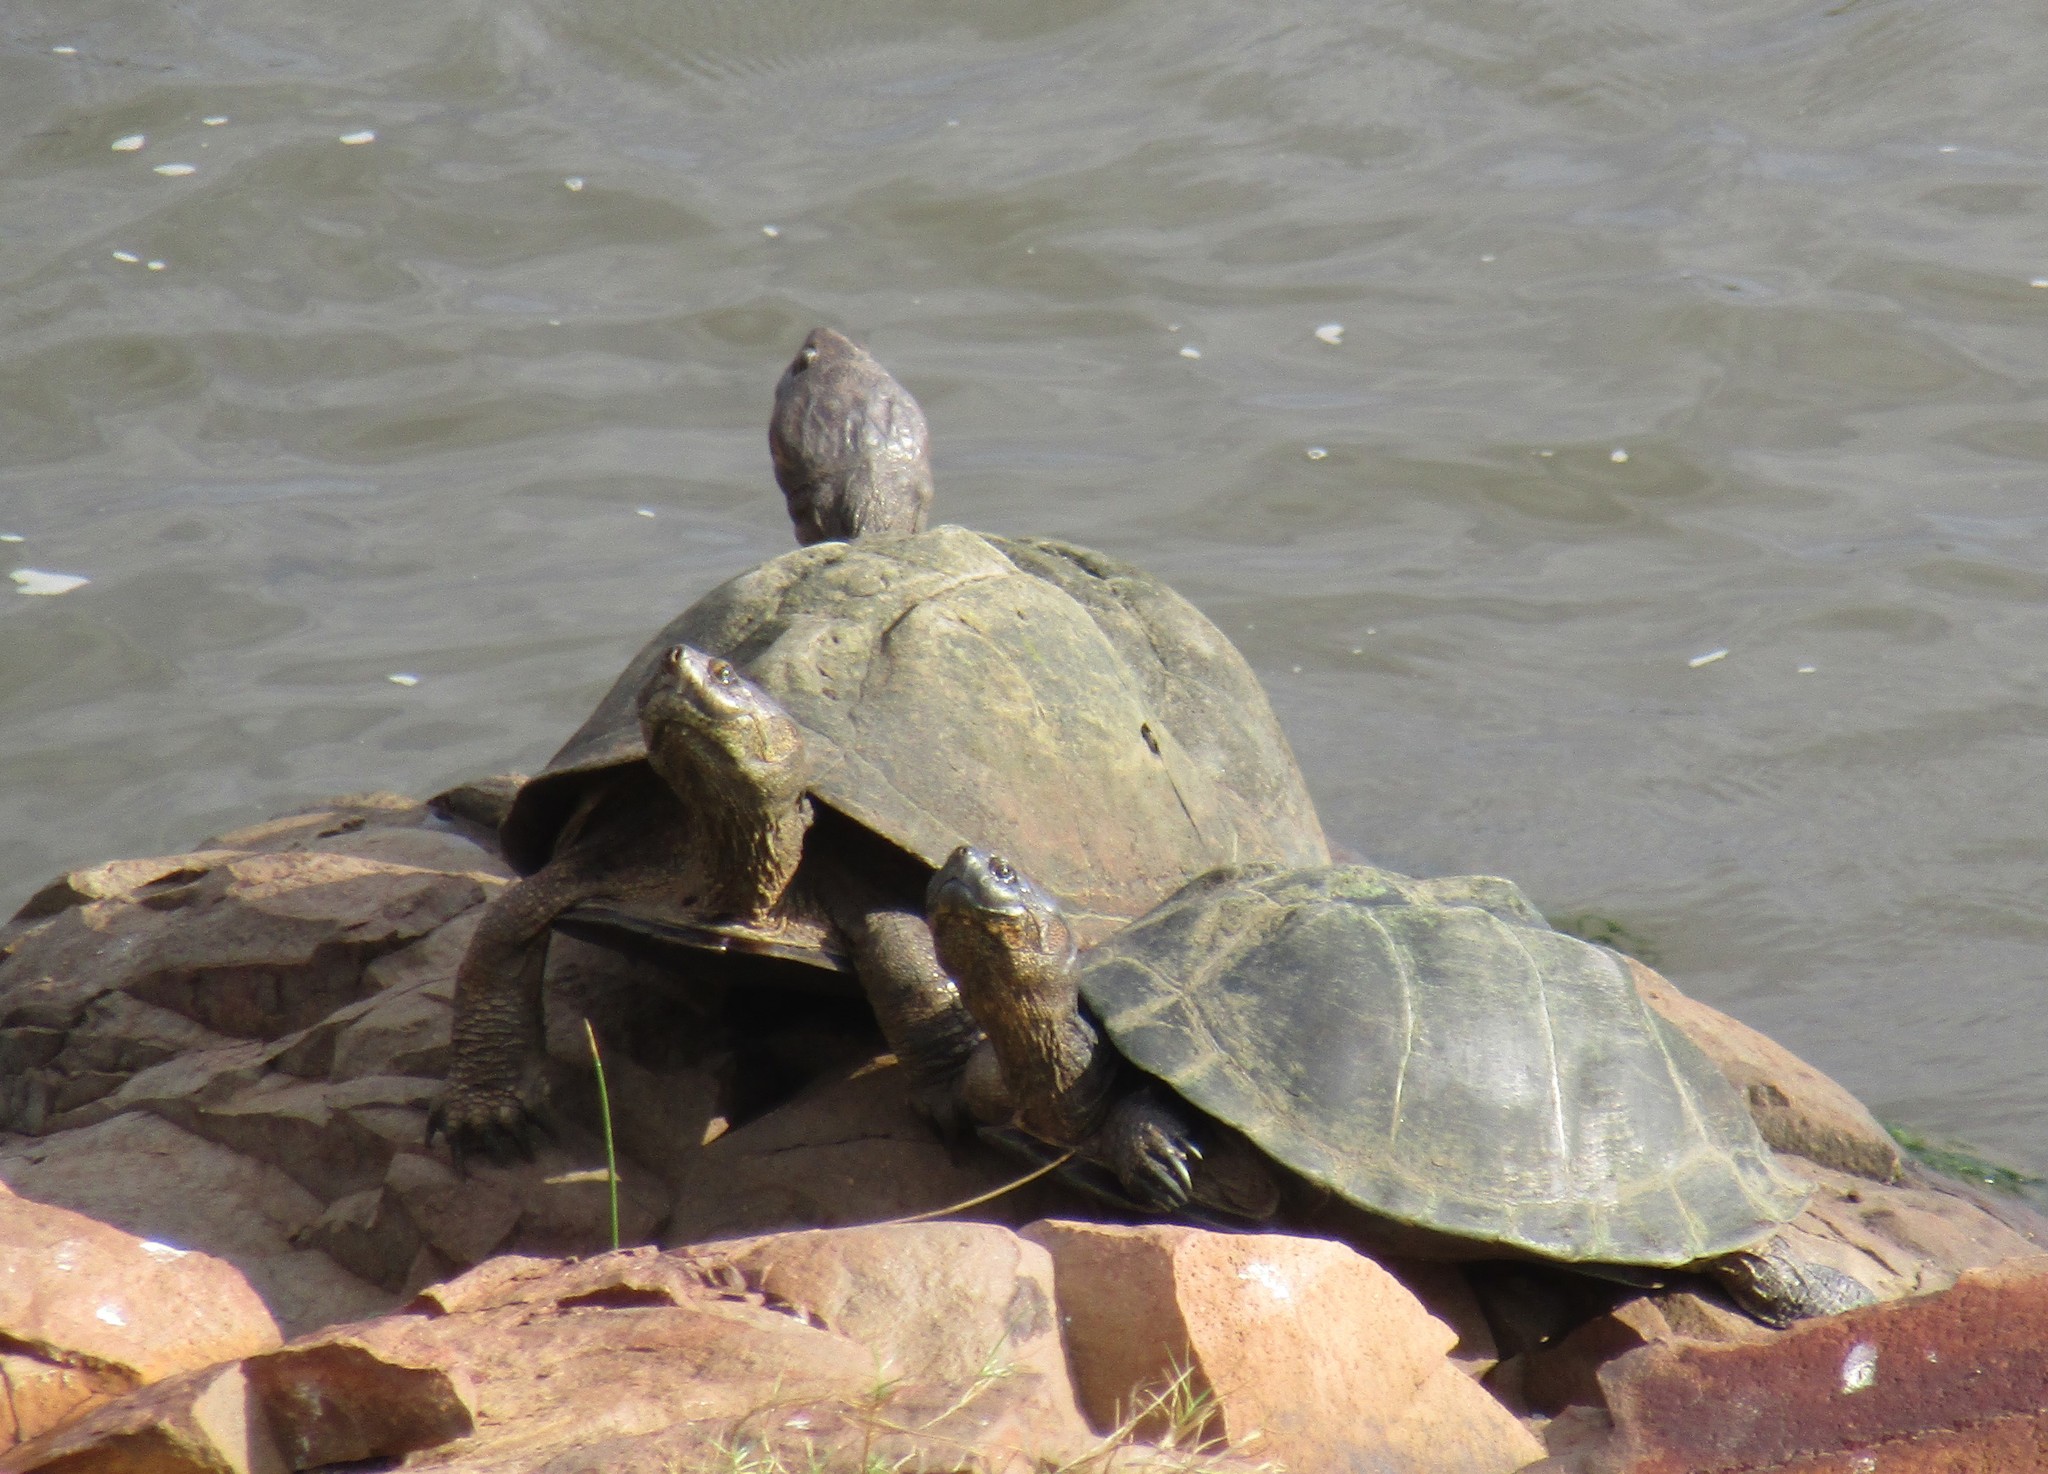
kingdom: Animalia
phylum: Chordata
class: Testudines
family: Pelomedusidae
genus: Pelusios
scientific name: Pelusios sinuatus
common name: Serrated hinged terrapin
